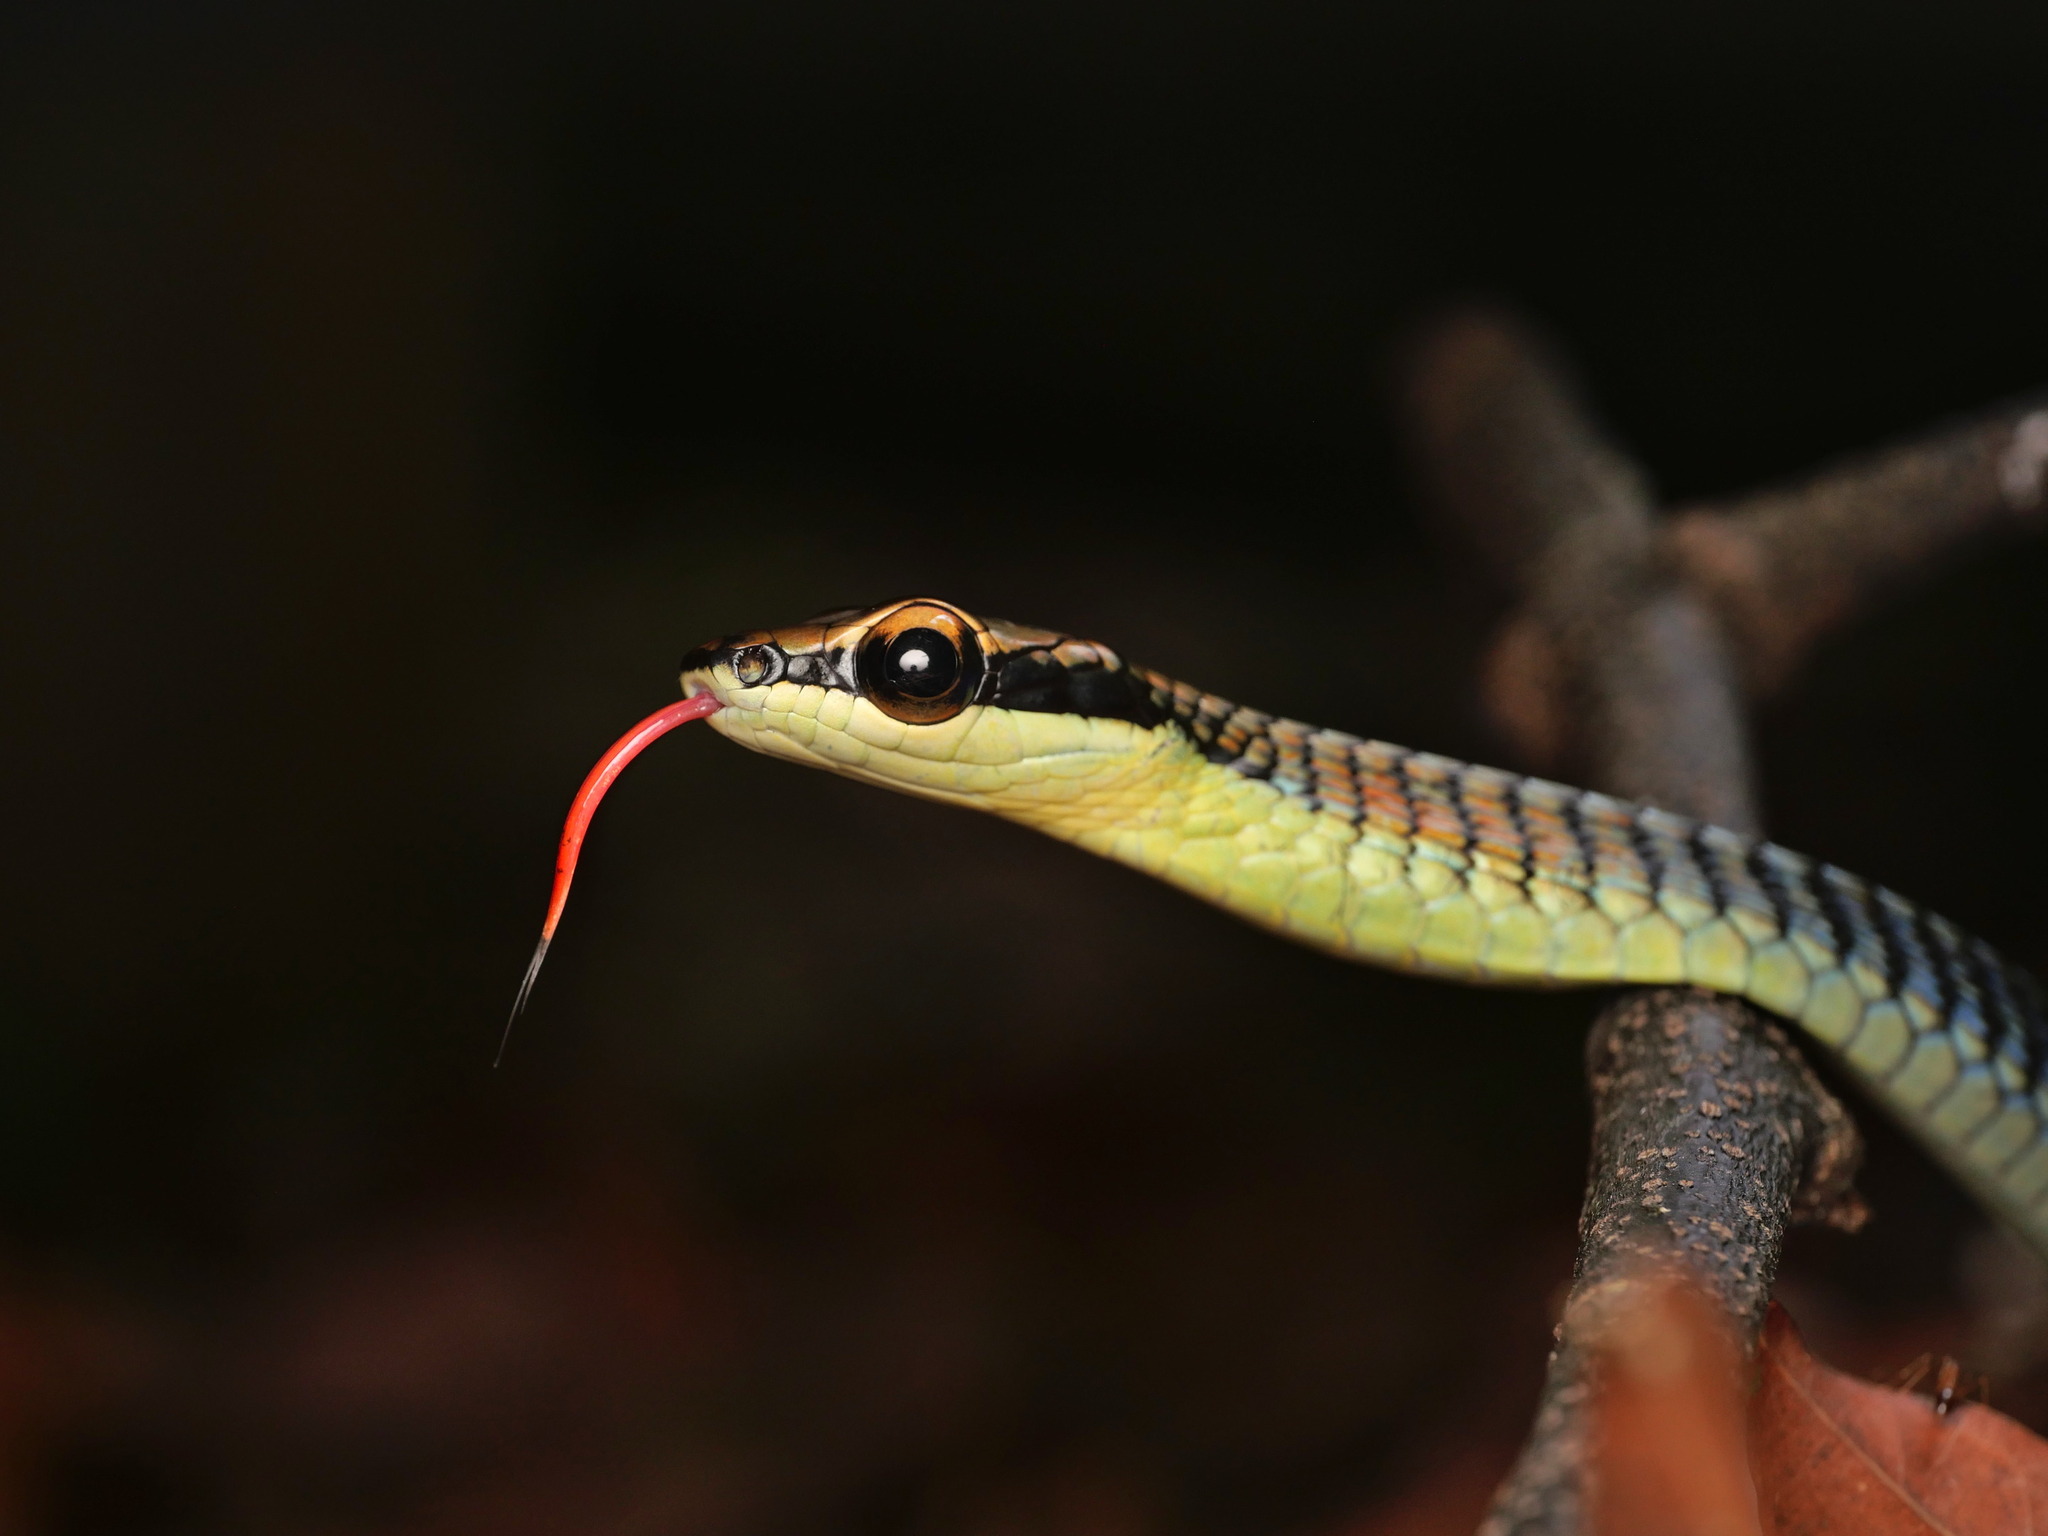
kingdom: Animalia
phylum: Chordata
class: Squamata
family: Colubridae
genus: Dendrelaphis
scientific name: Dendrelaphis kopsteini
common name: Kopstein�s bronzeback
